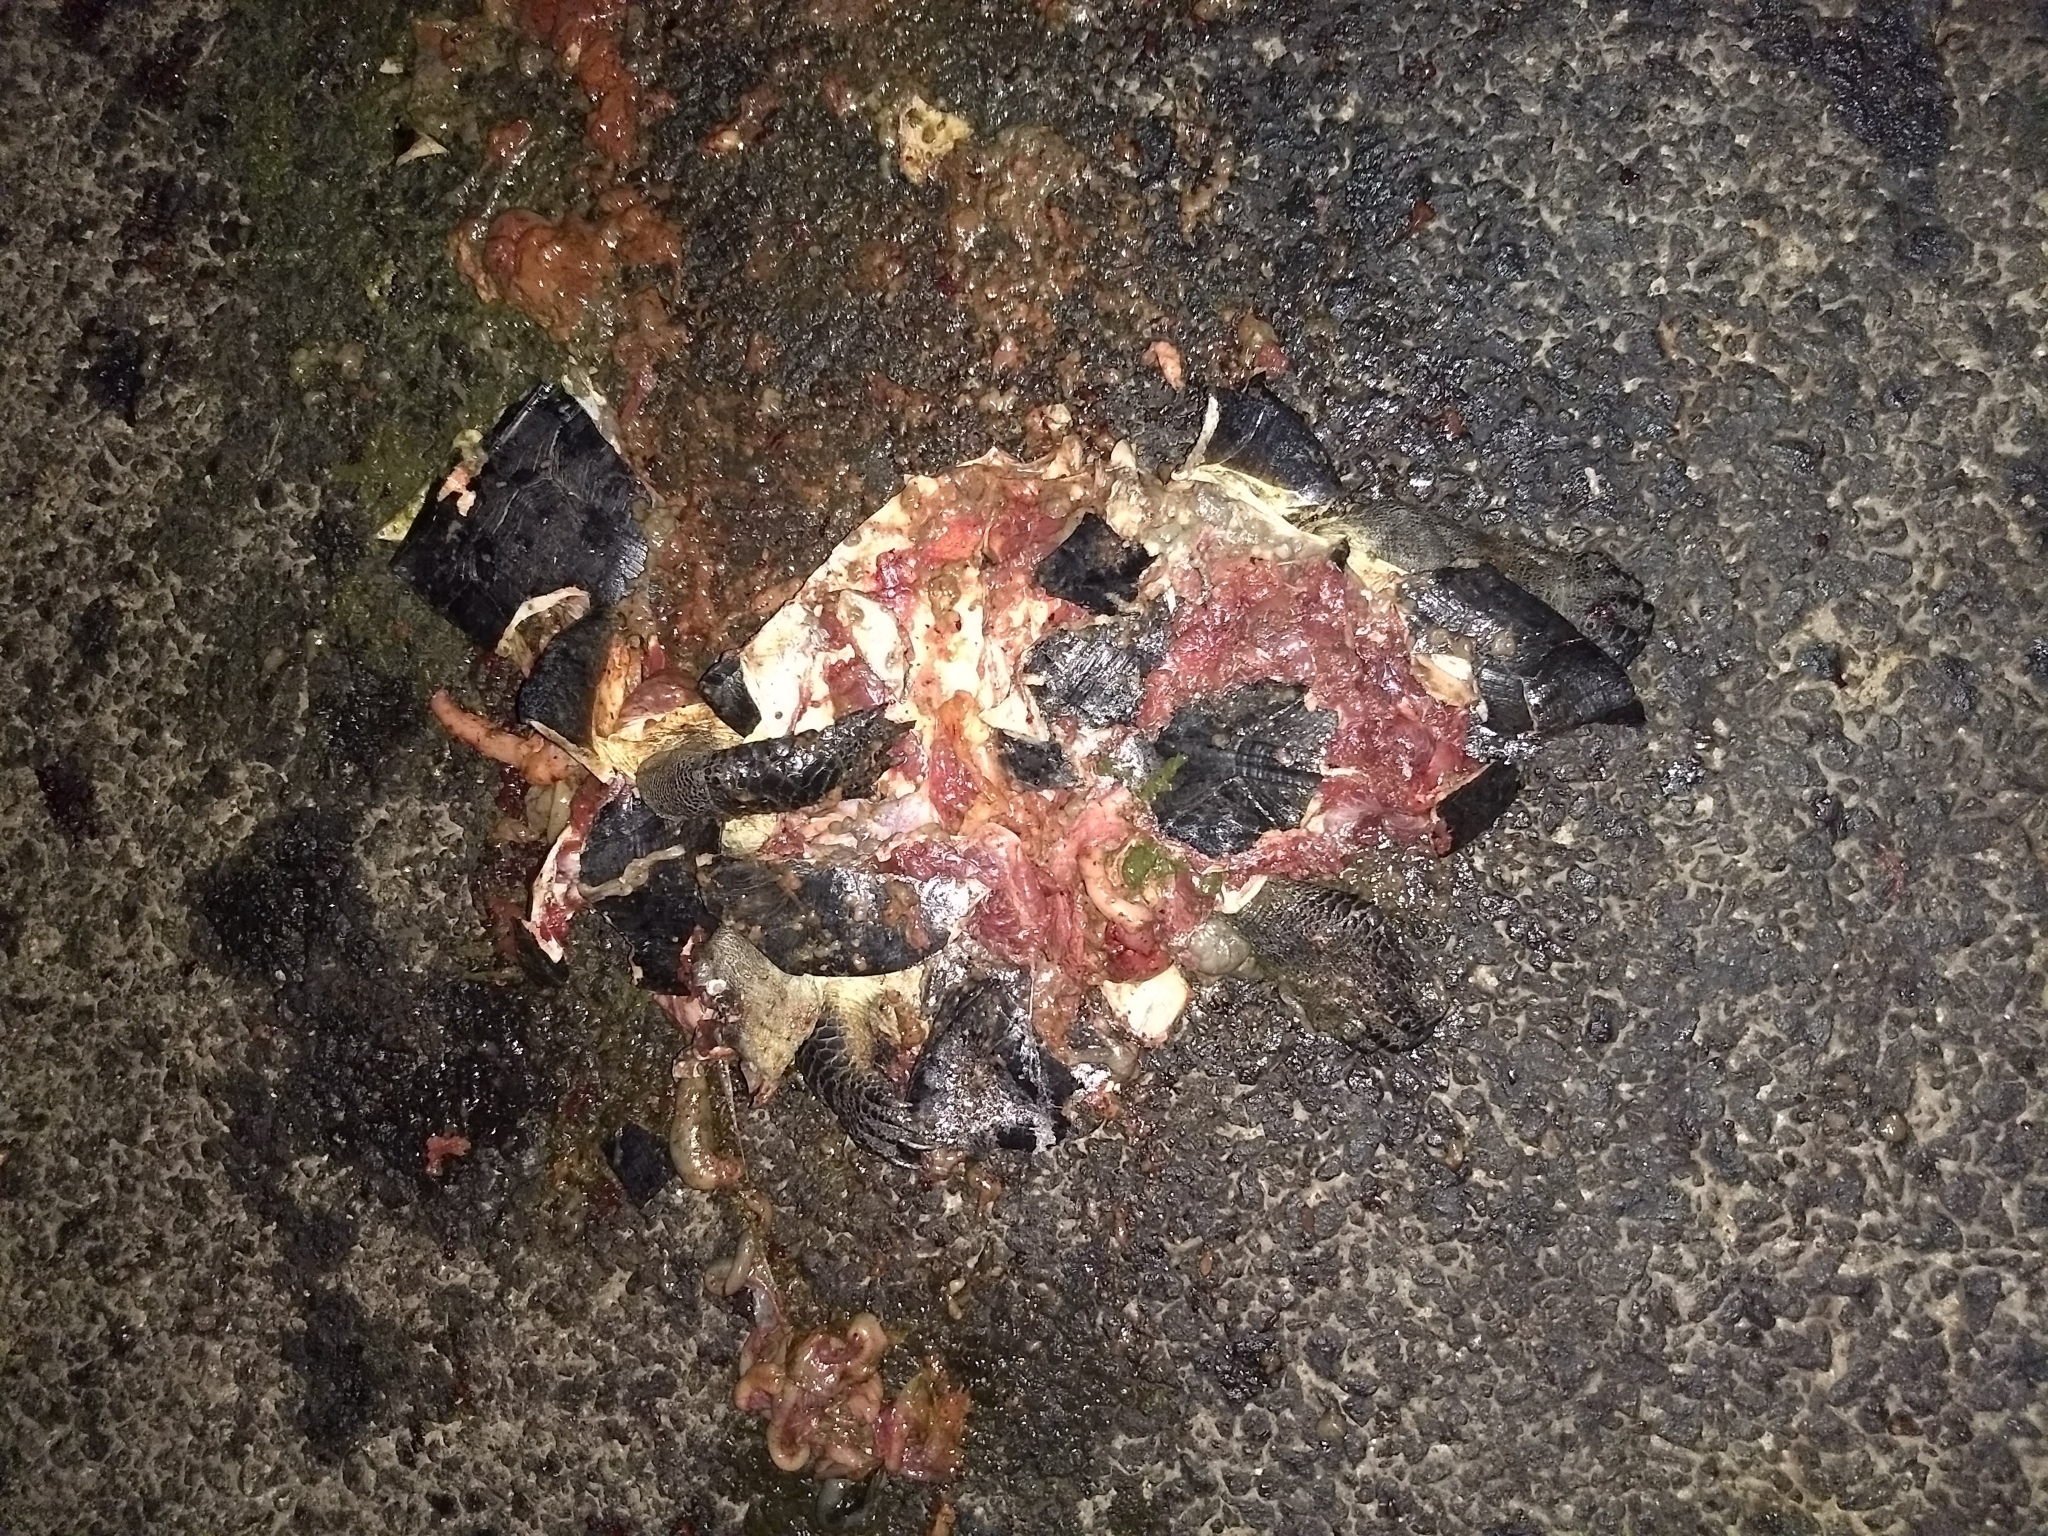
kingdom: Animalia
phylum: Chordata
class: Testudines
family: Geoemydidae
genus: Melanochelys
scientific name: Melanochelys trijuga
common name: Indian black turtle
